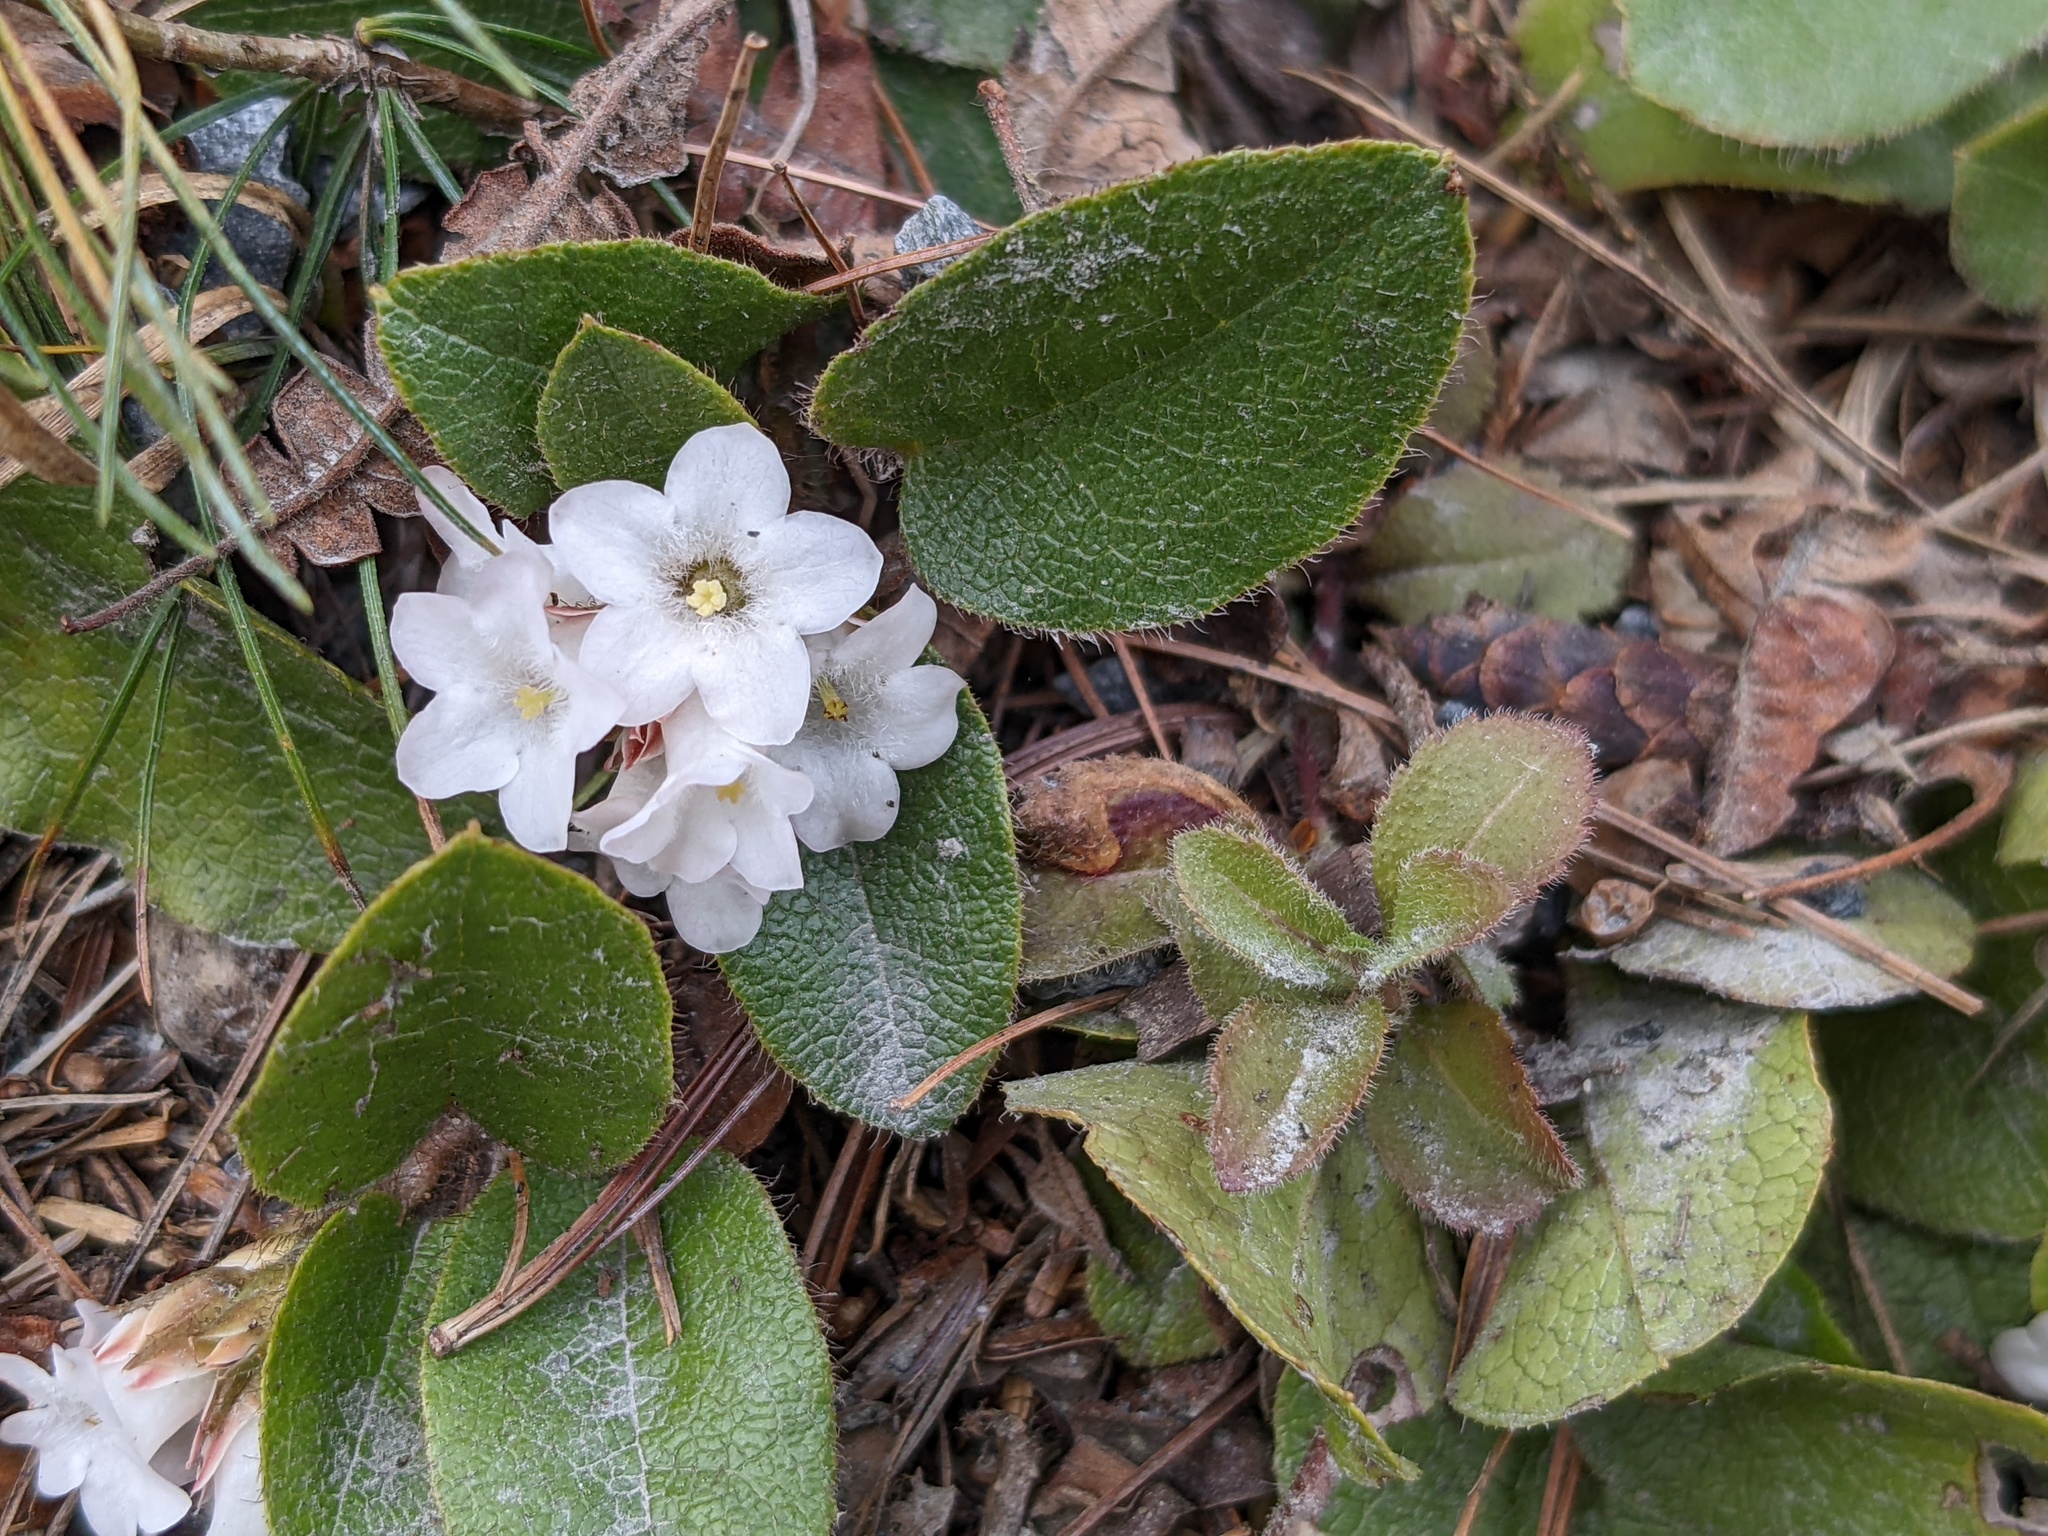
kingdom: Plantae
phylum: Tracheophyta
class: Magnoliopsida
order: Ericales
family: Ericaceae
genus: Epigaea
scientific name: Epigaea repens
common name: Gravelroot
